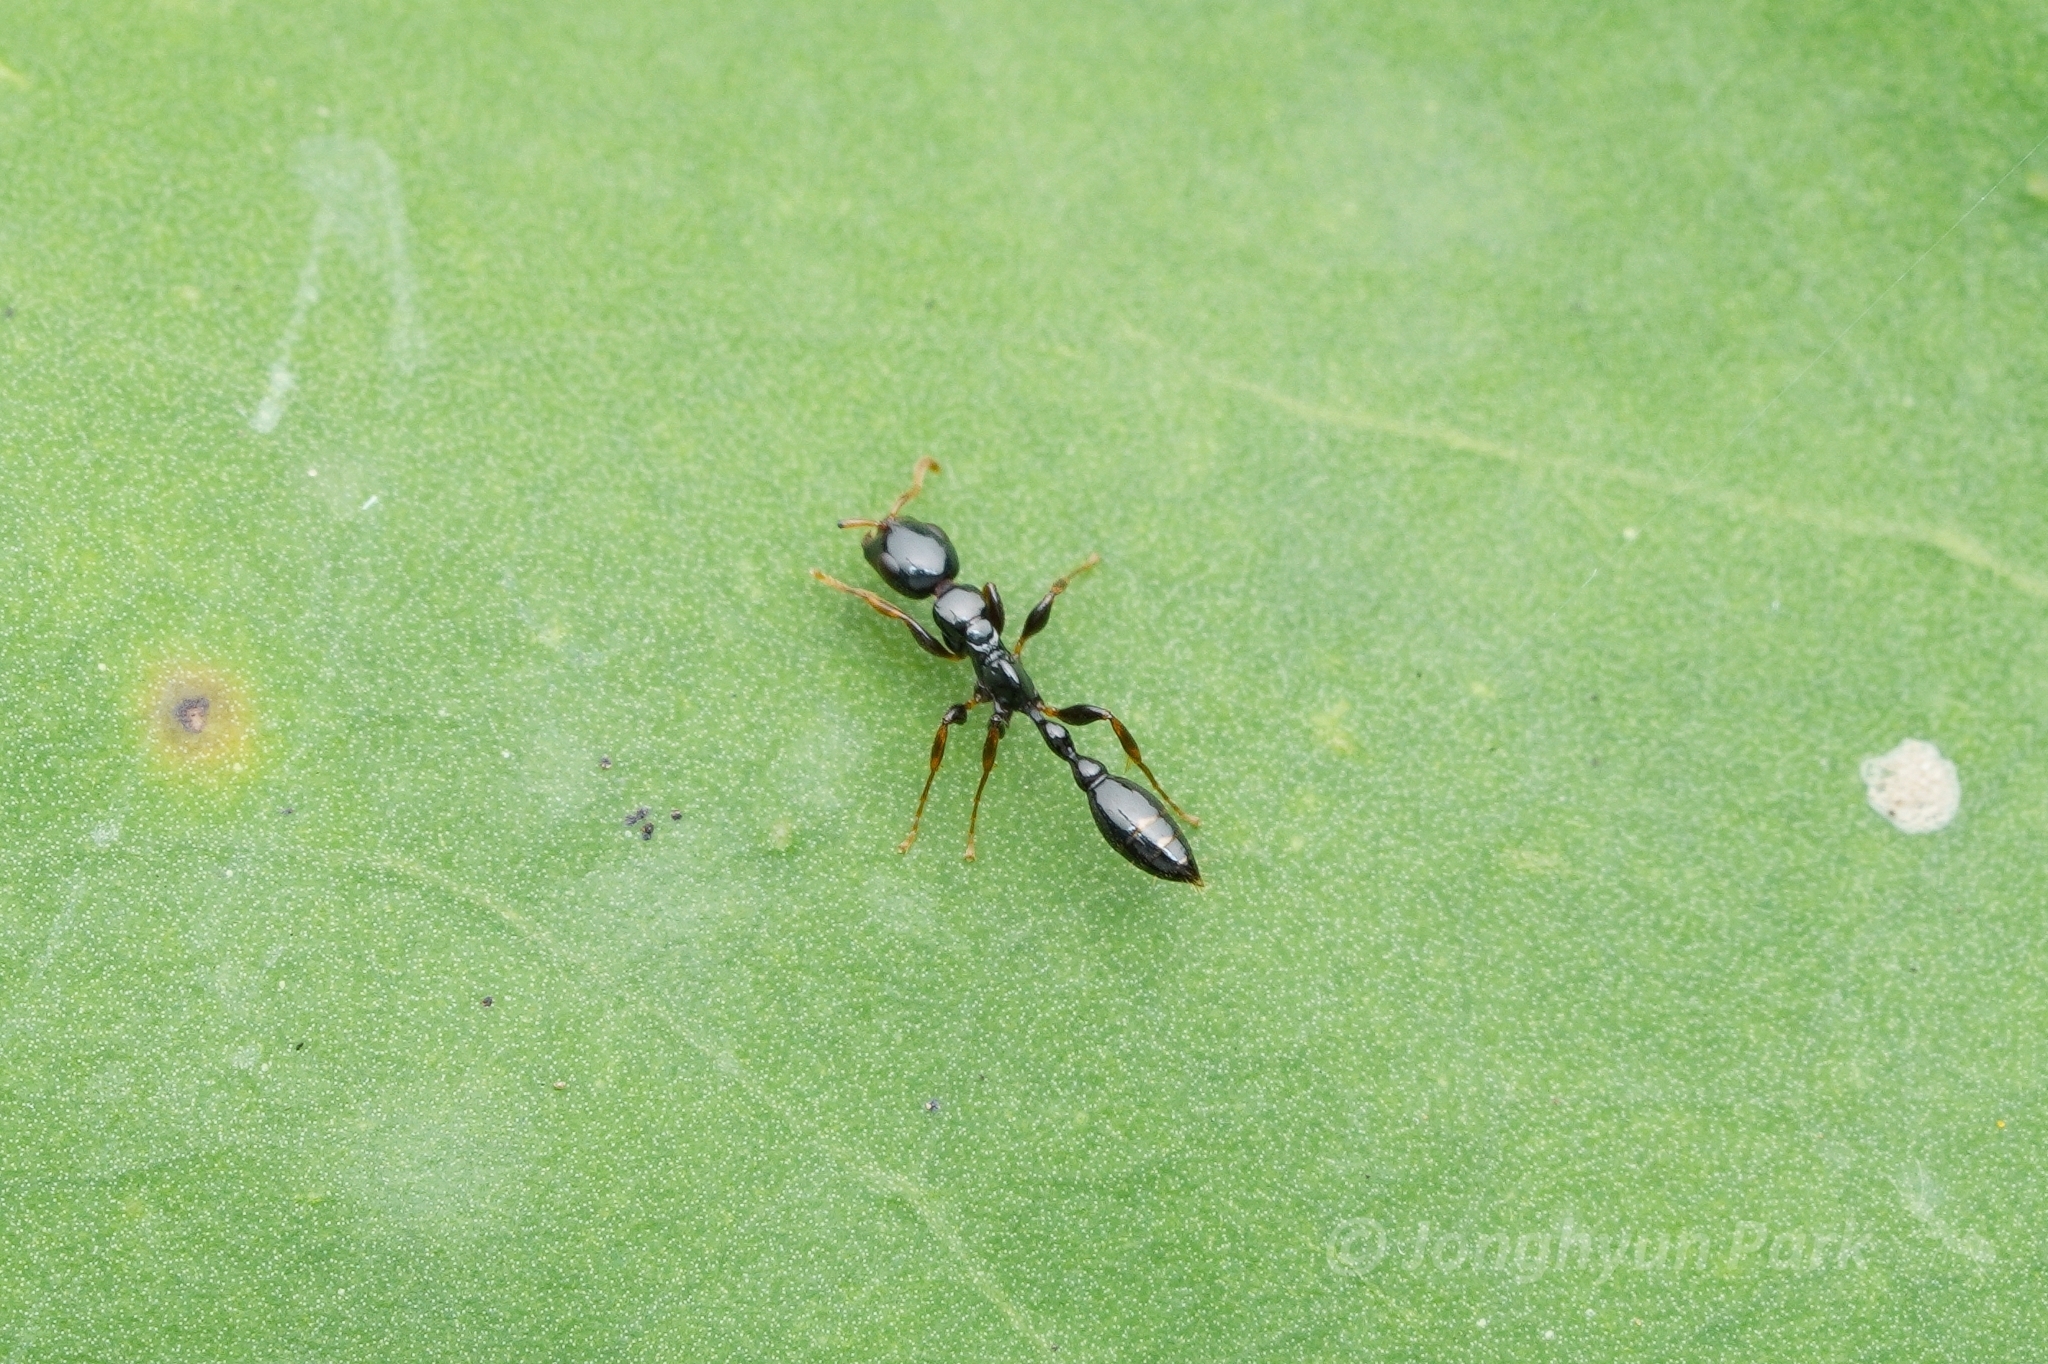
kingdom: Animalia
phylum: Arthropoda
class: Insecta
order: Hymenoptera
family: Formicidae
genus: Tetraponera
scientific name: Tetraponera allaborans
